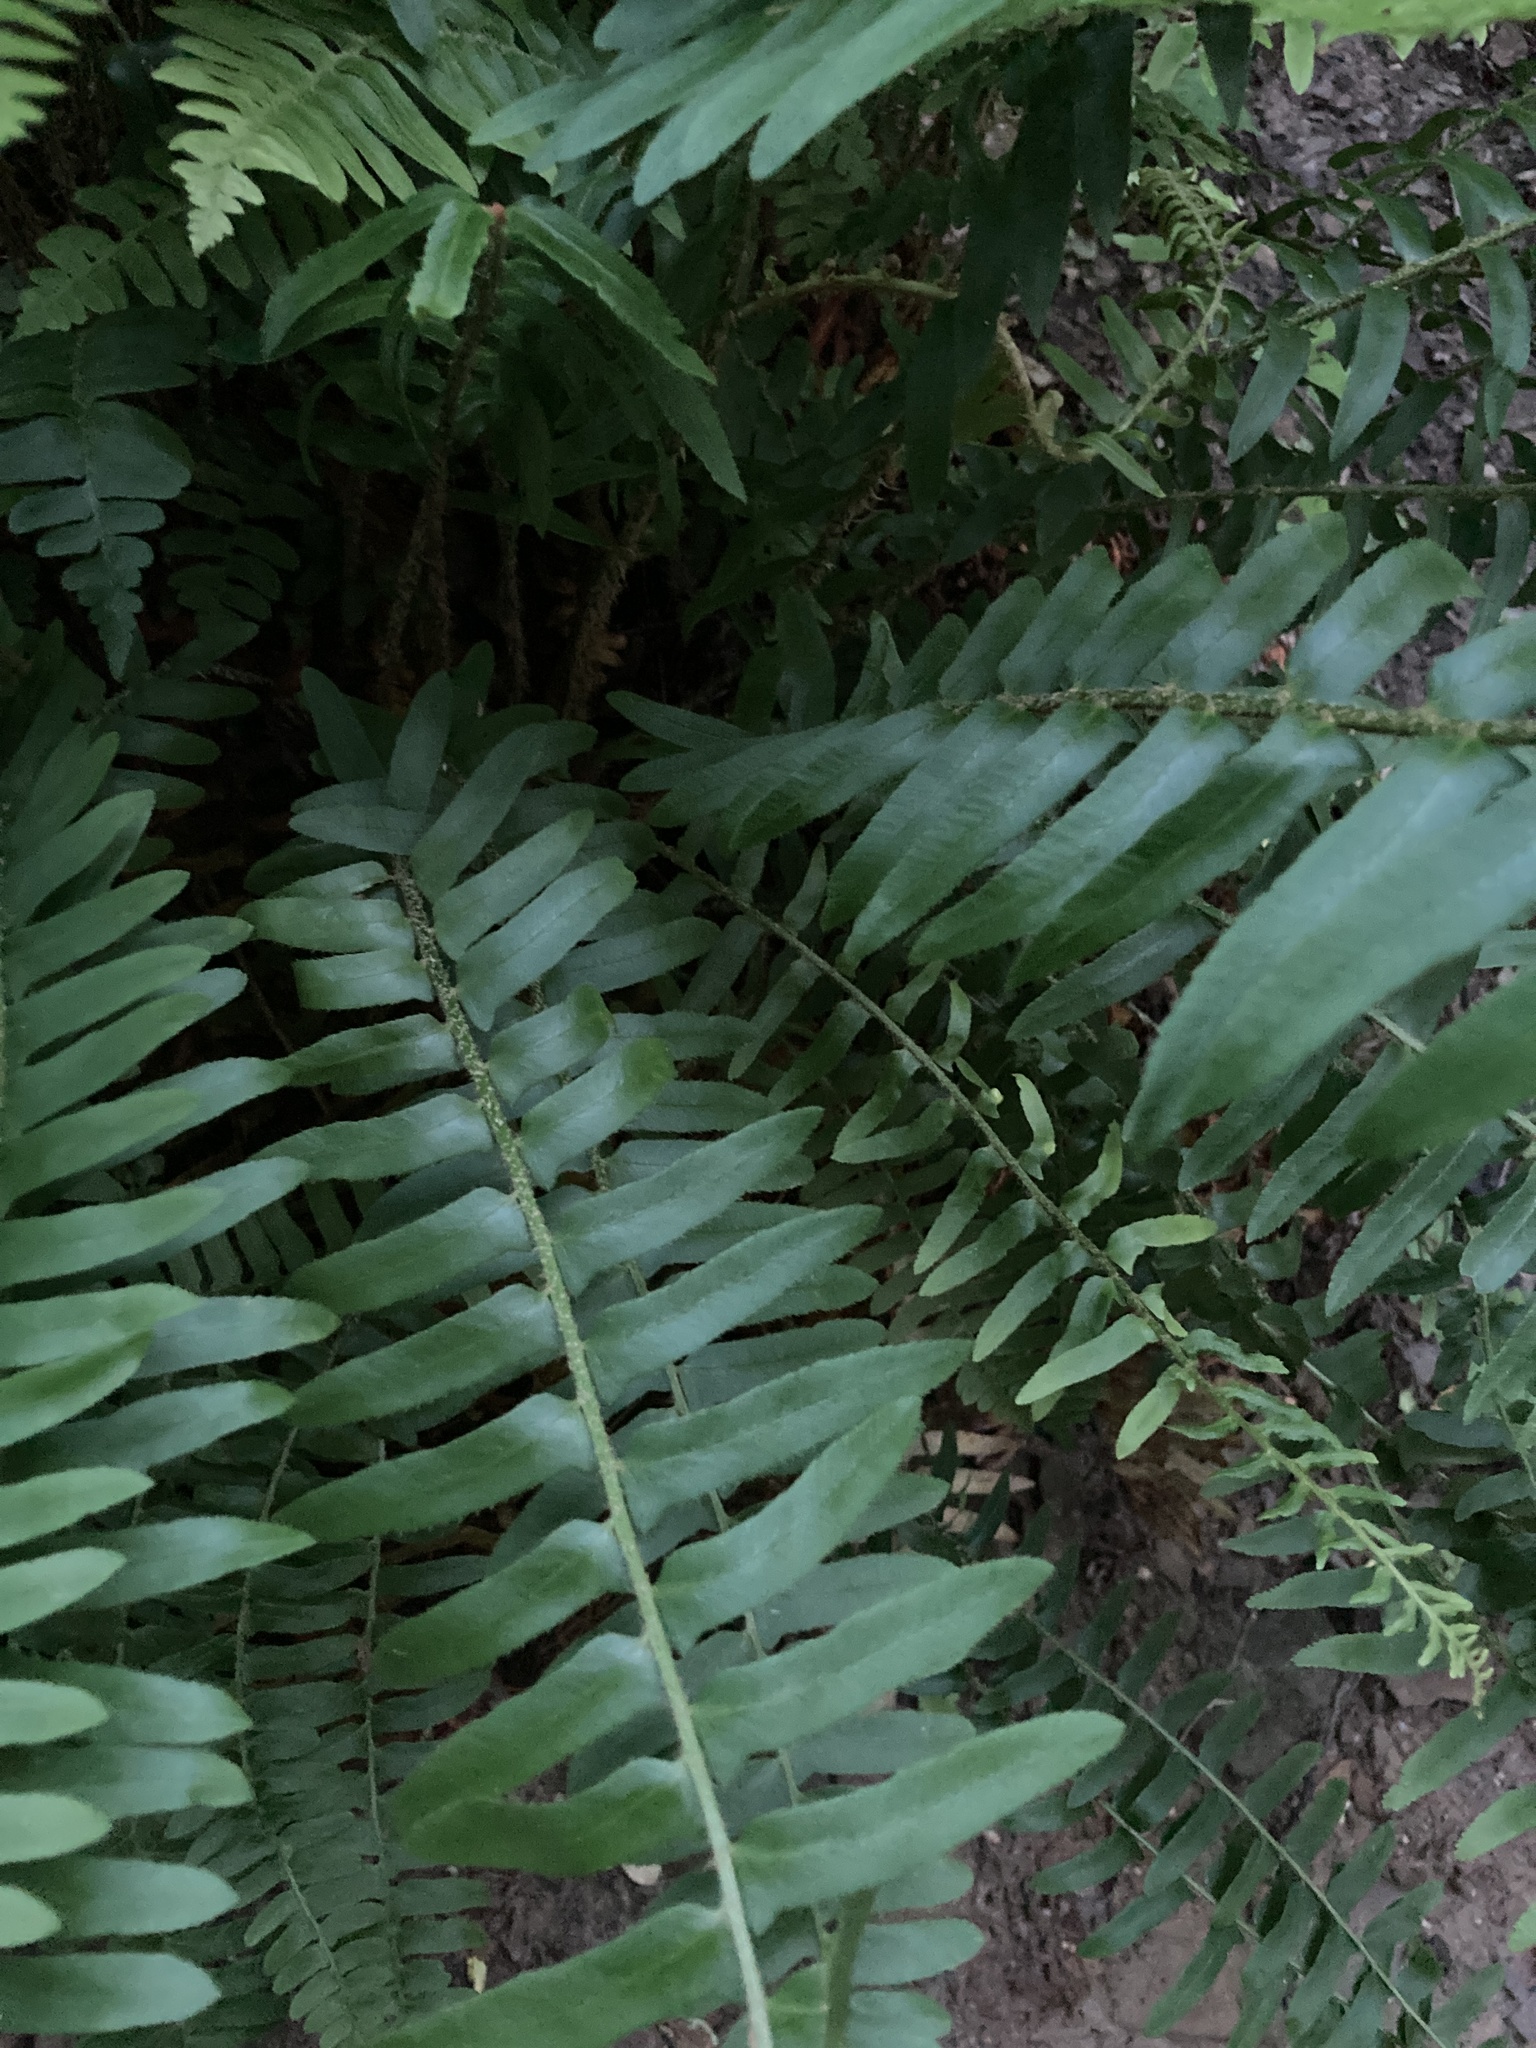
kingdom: Plantae
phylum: Tracheophyta
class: Polypodiopsida
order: Polypodiales
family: Dryopteridaceae
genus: Polystichum
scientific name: Polystichum acrostichoides
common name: Christmas fern
